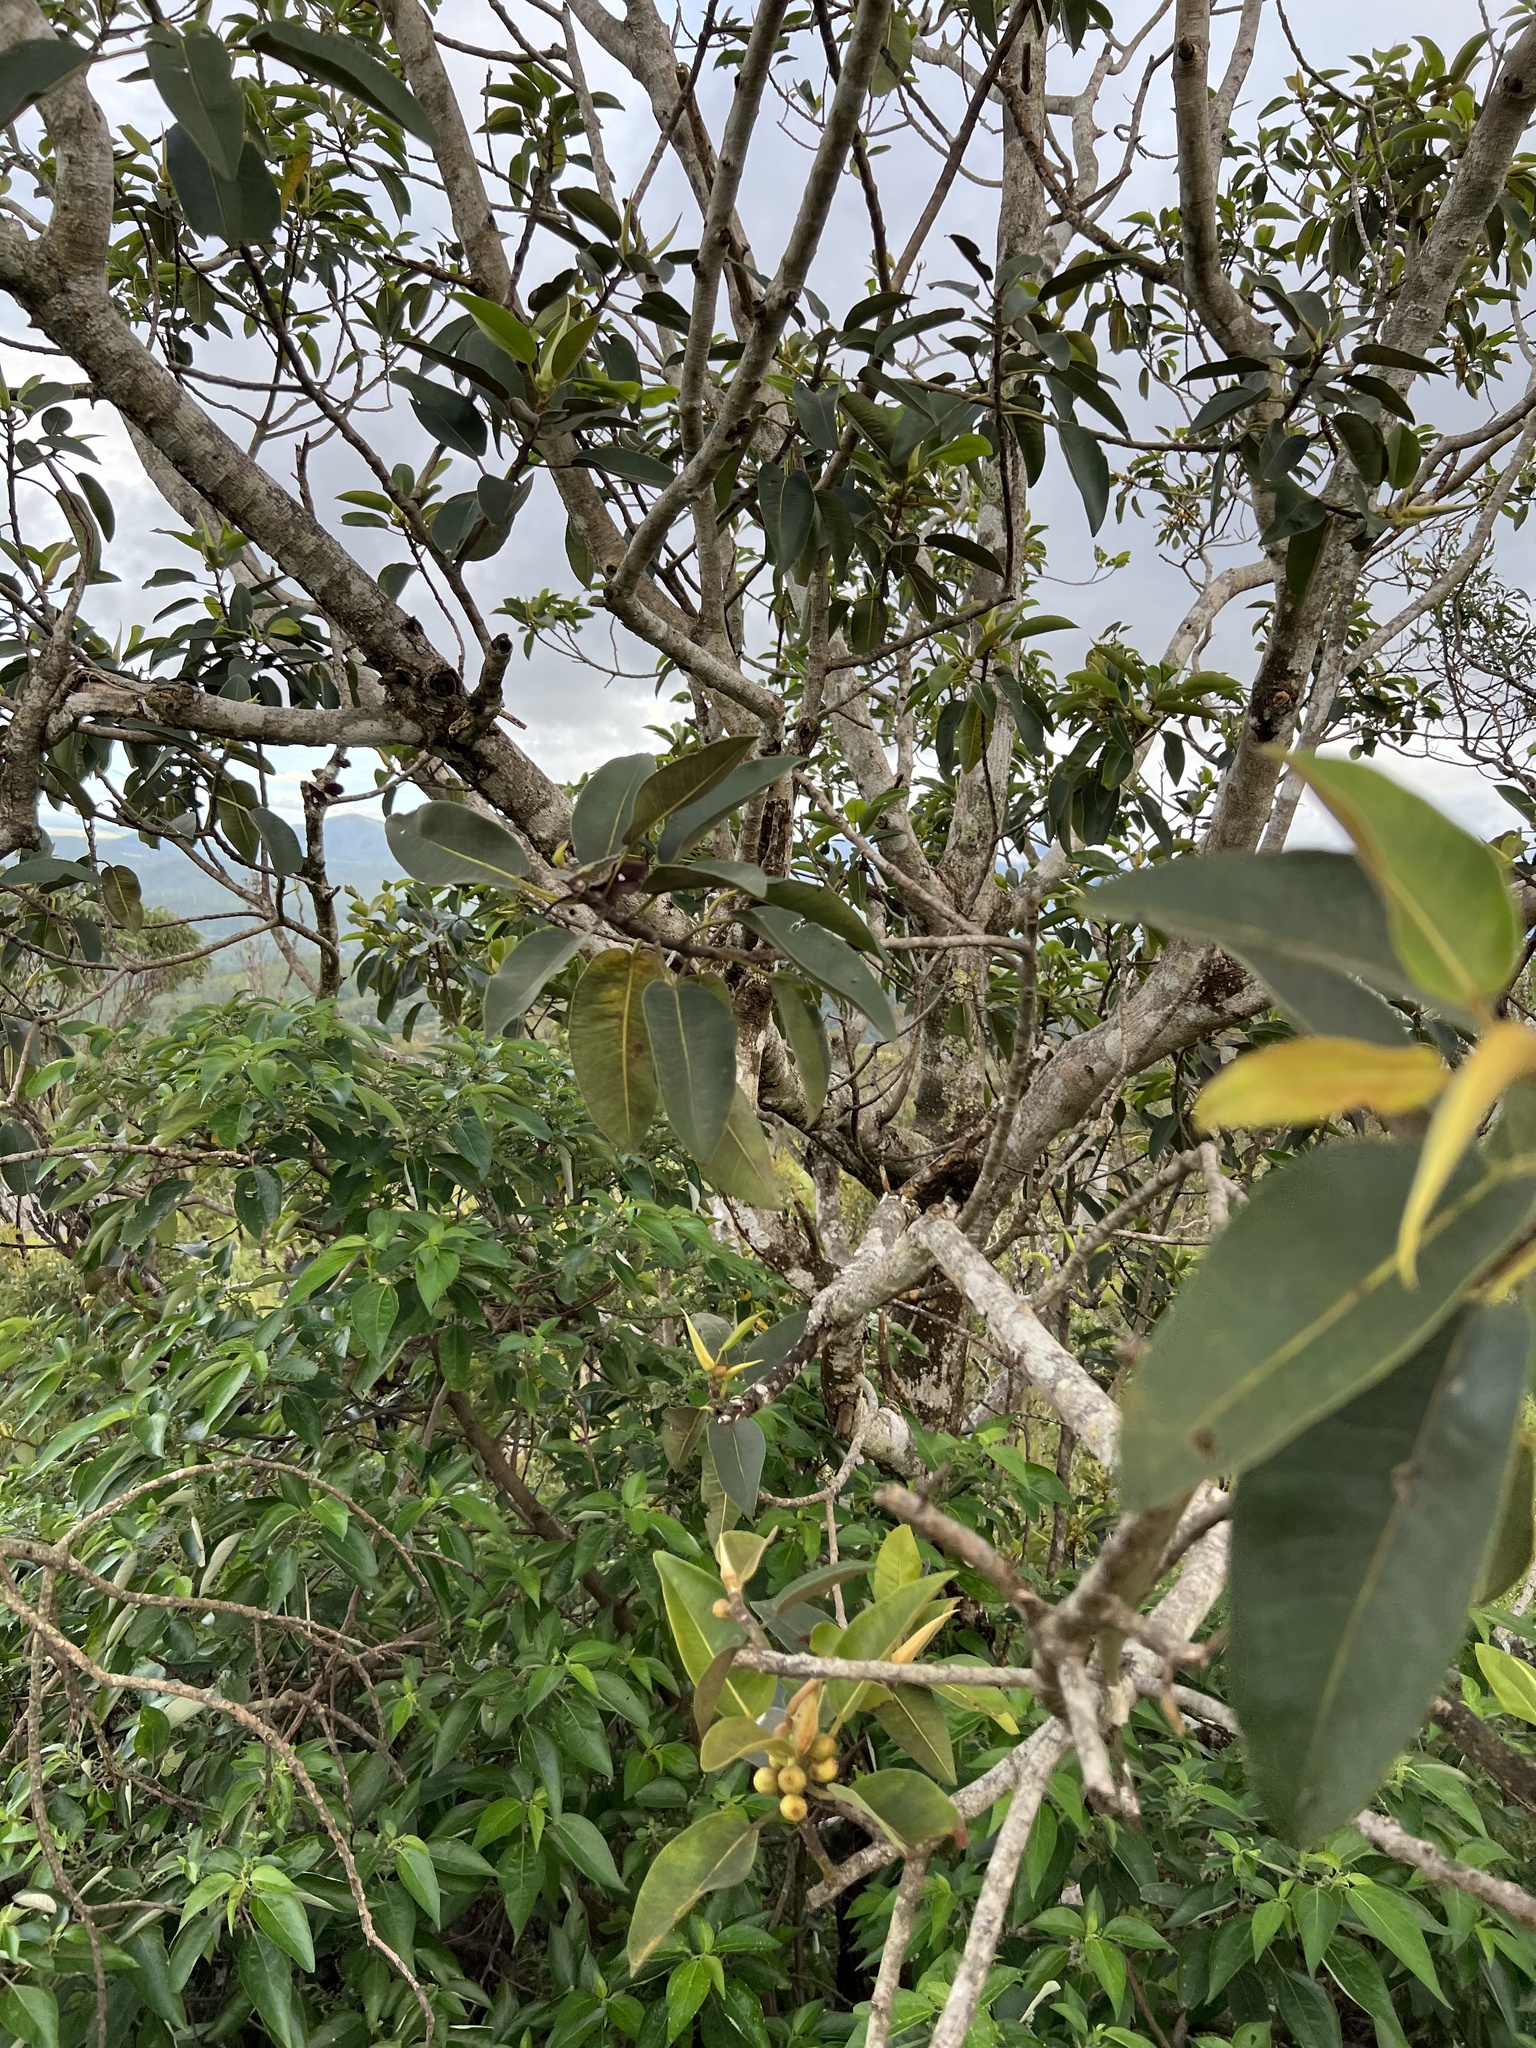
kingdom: Plantae
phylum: Tracheophyta
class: Magnoliopsida
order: Rosales
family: Moraceae
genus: Ficus
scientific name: Ficus rubiginosa
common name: Port jackson fig
